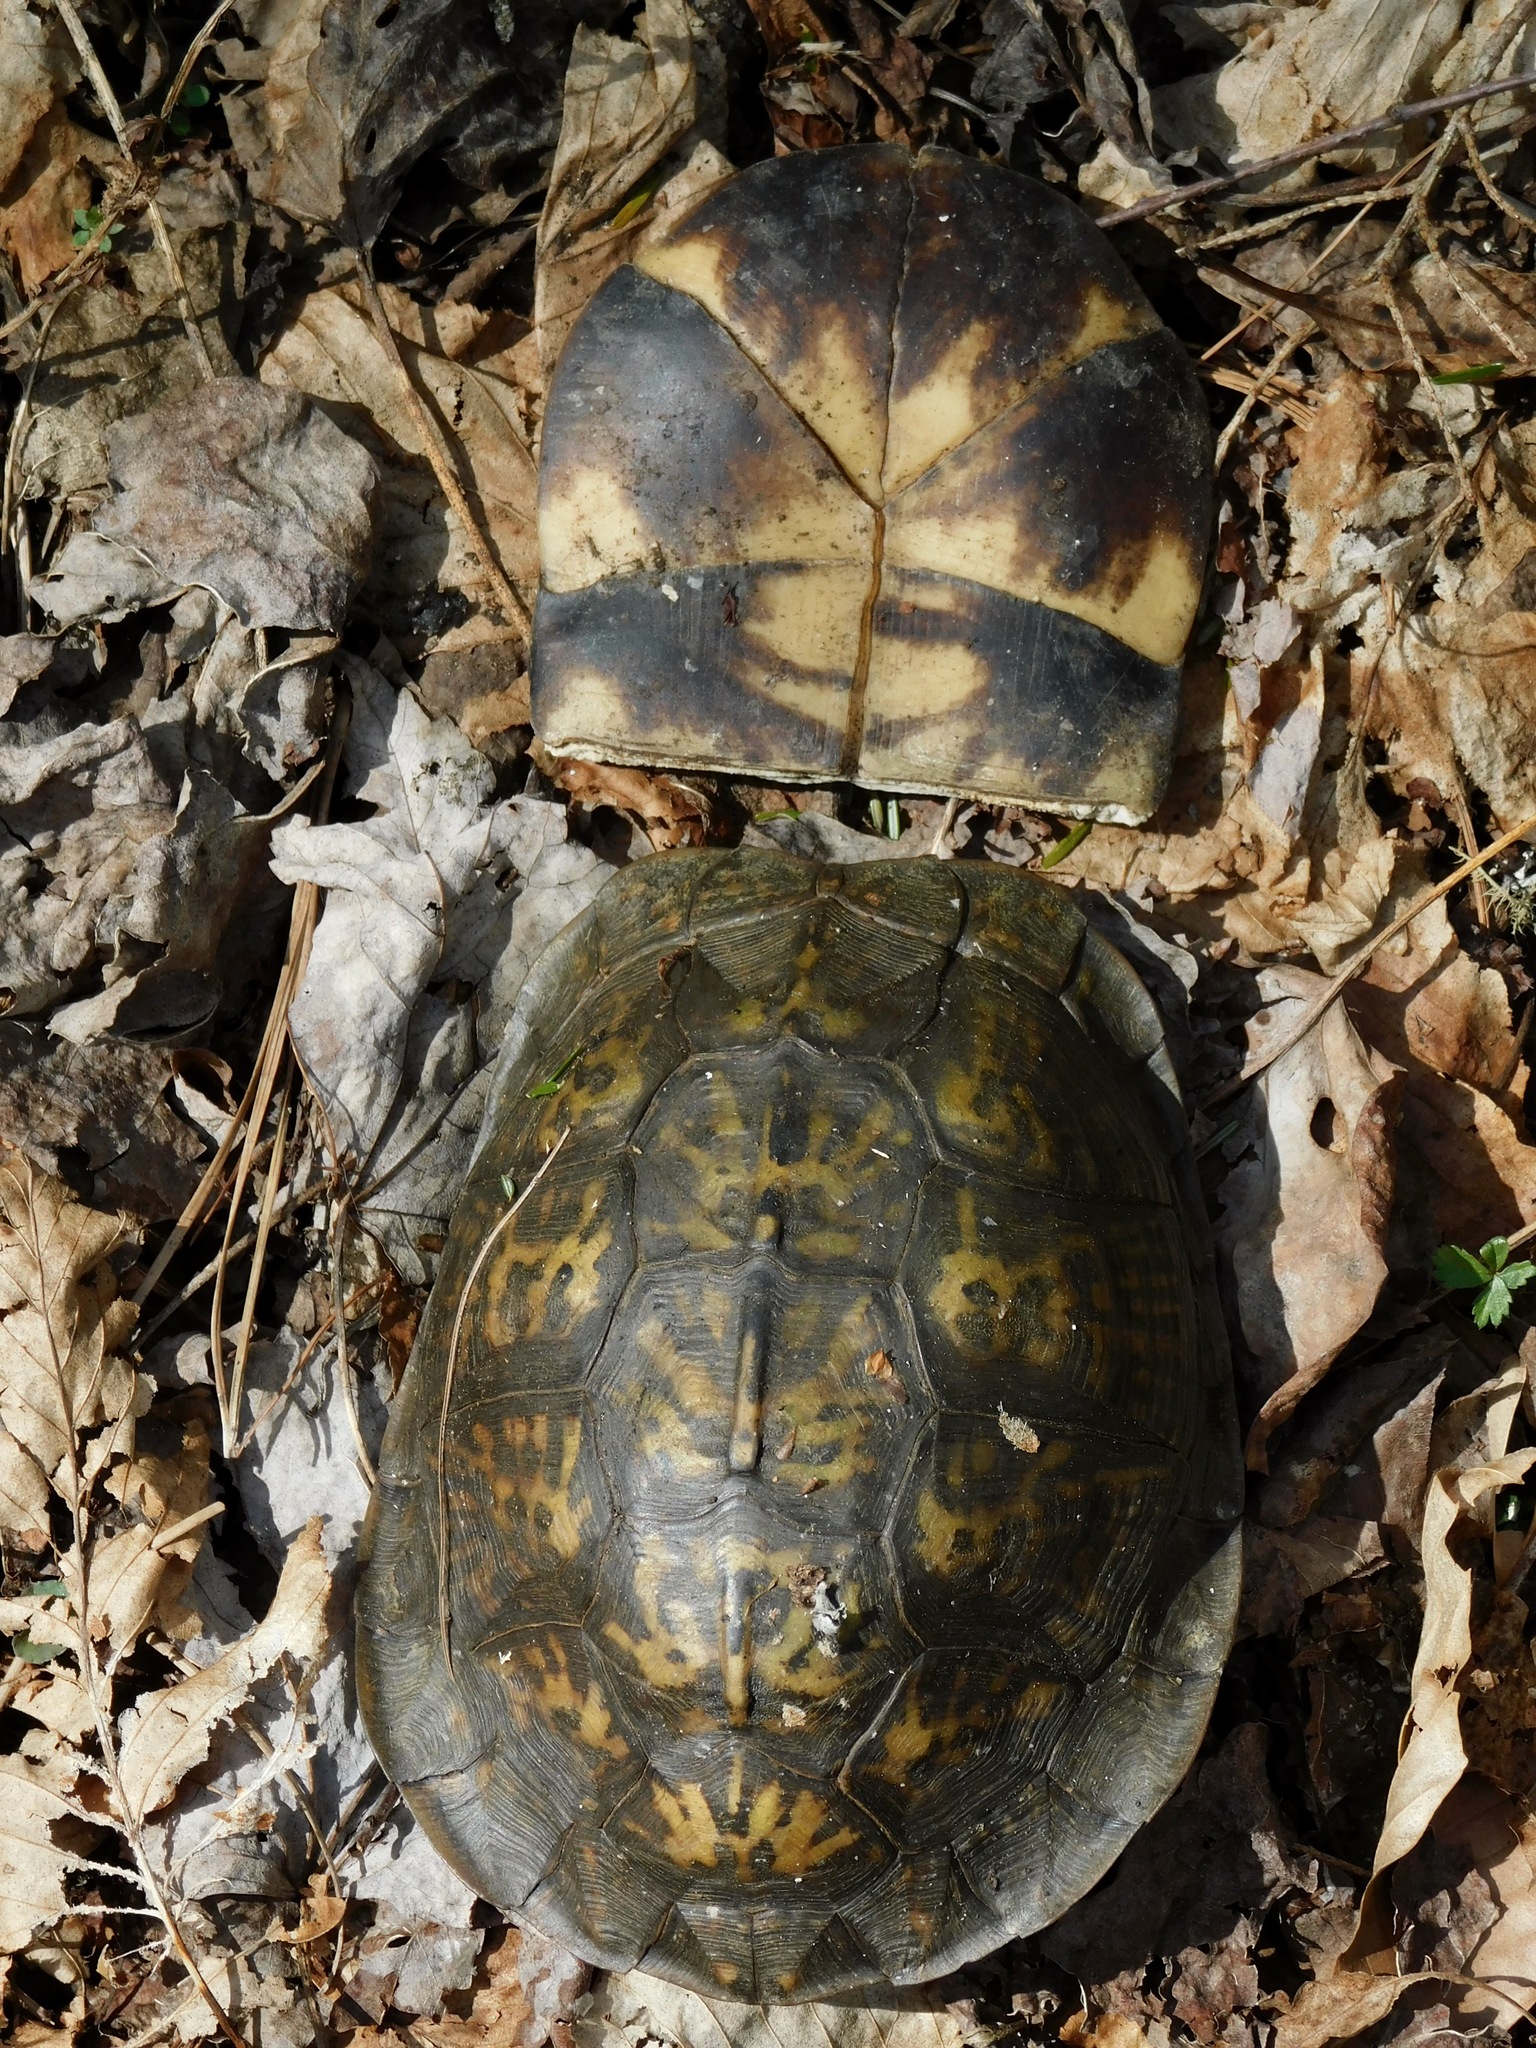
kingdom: Animalia
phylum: Chordata
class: Testudines
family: Emydidae
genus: Terrapene
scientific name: Terrapene carolina
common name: Common box turtle
